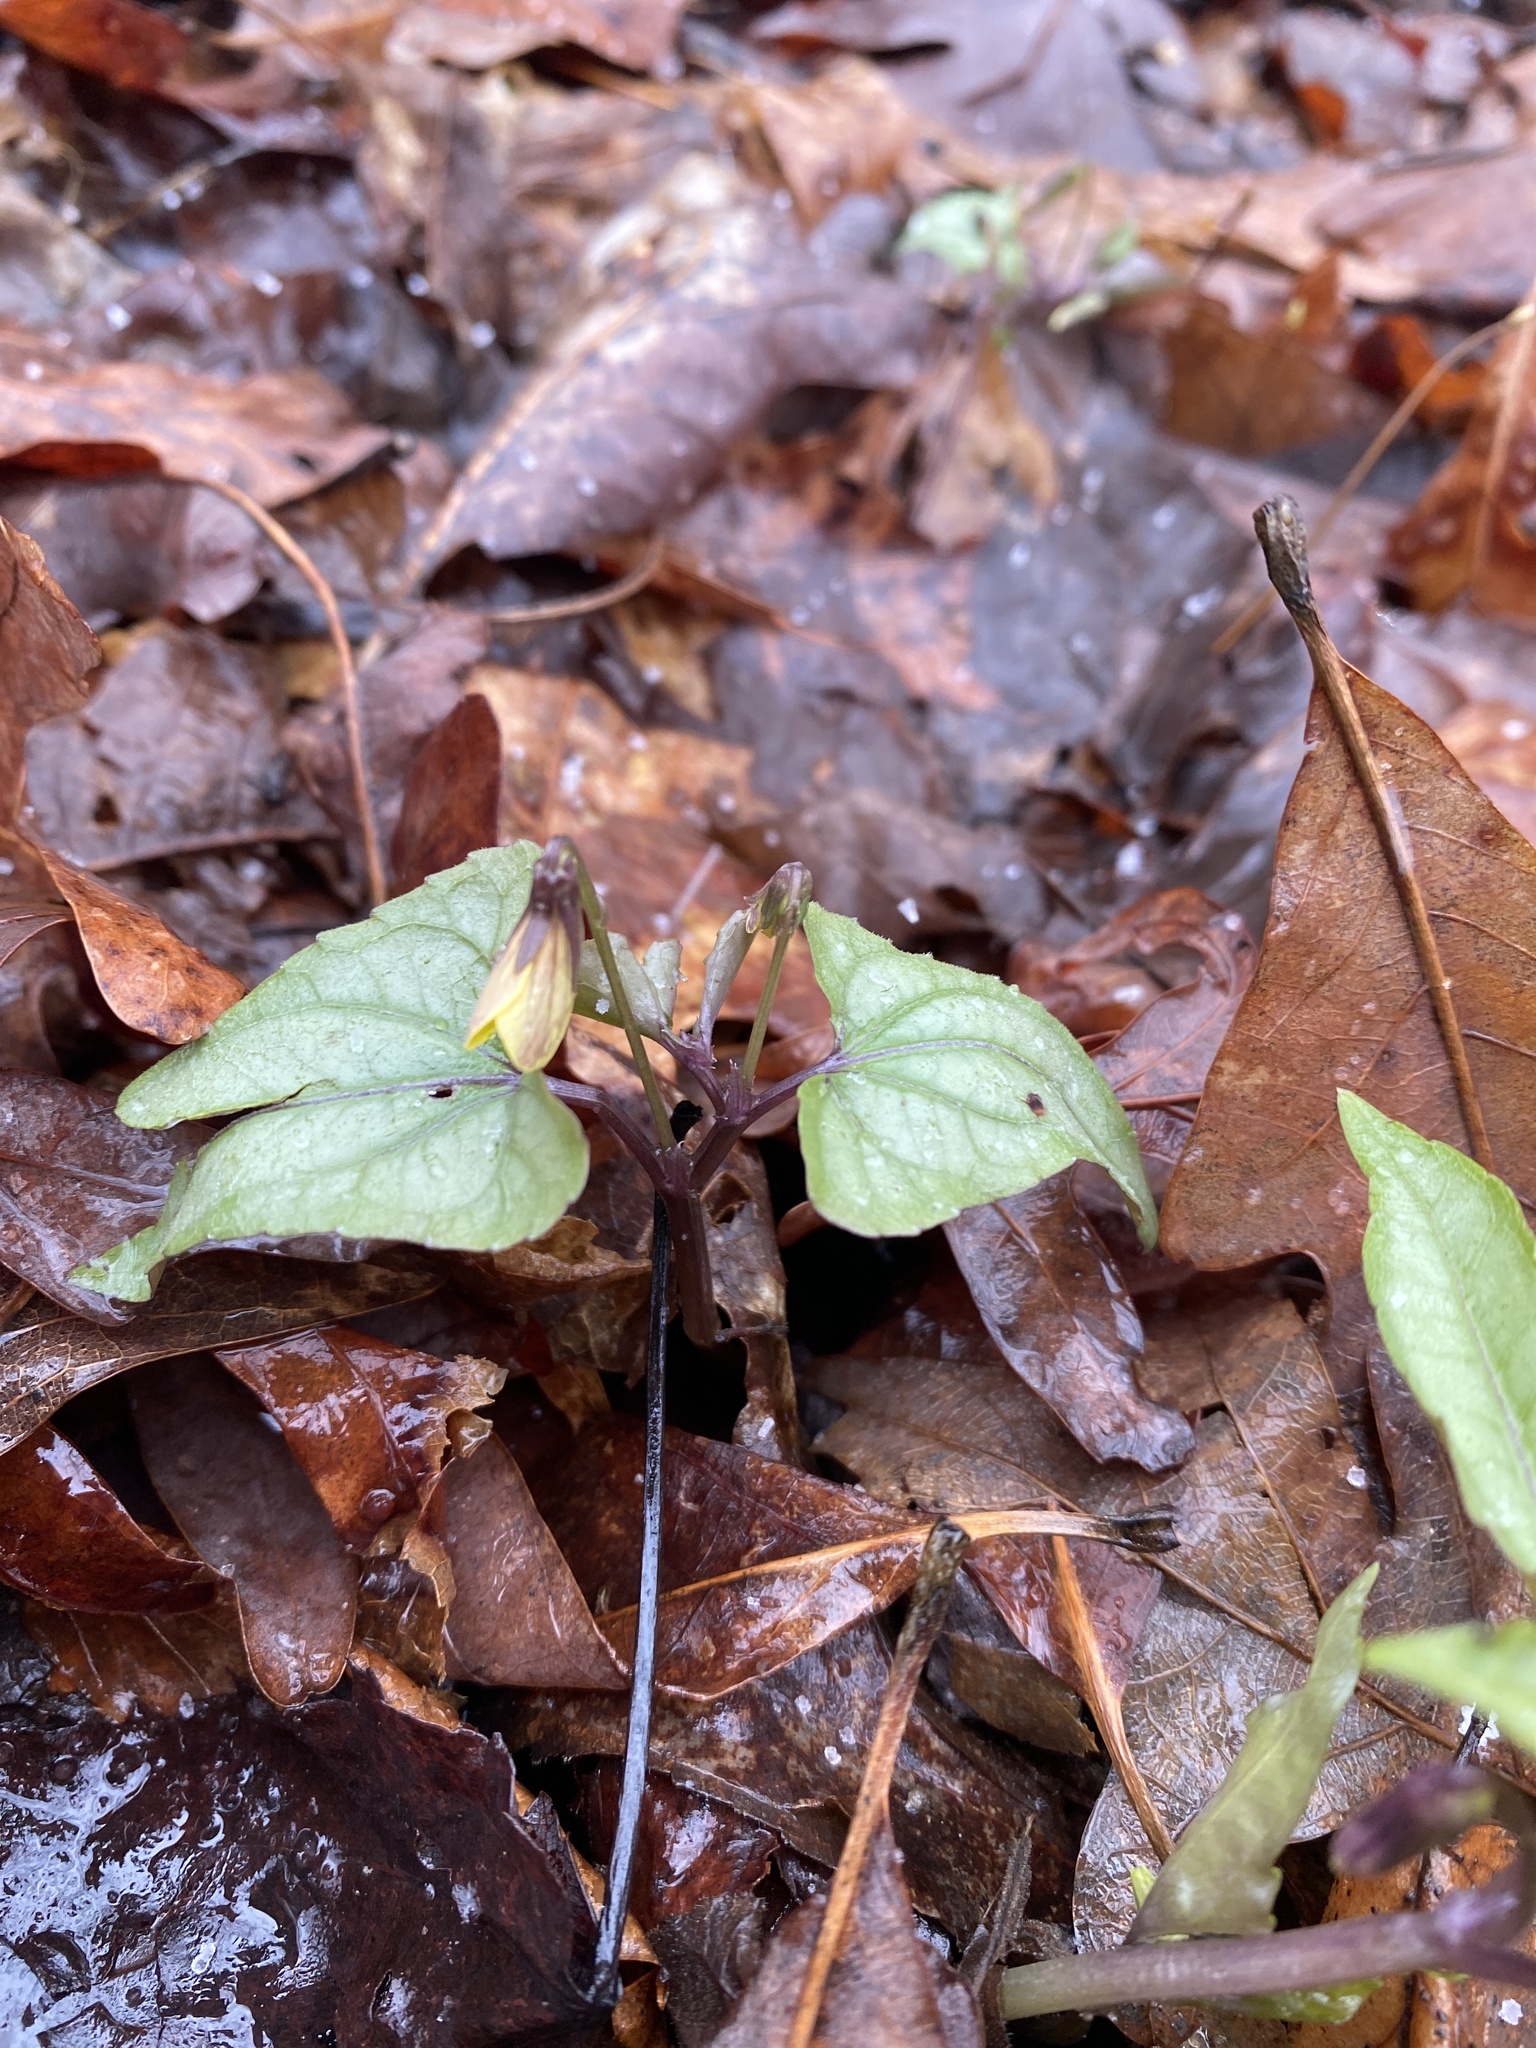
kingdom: Plantae
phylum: Tracheophyta
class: Magnoliopsida
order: Malpighiales
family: Violaceae
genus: Viola
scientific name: Viola hastata
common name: Spear-leaf violet
